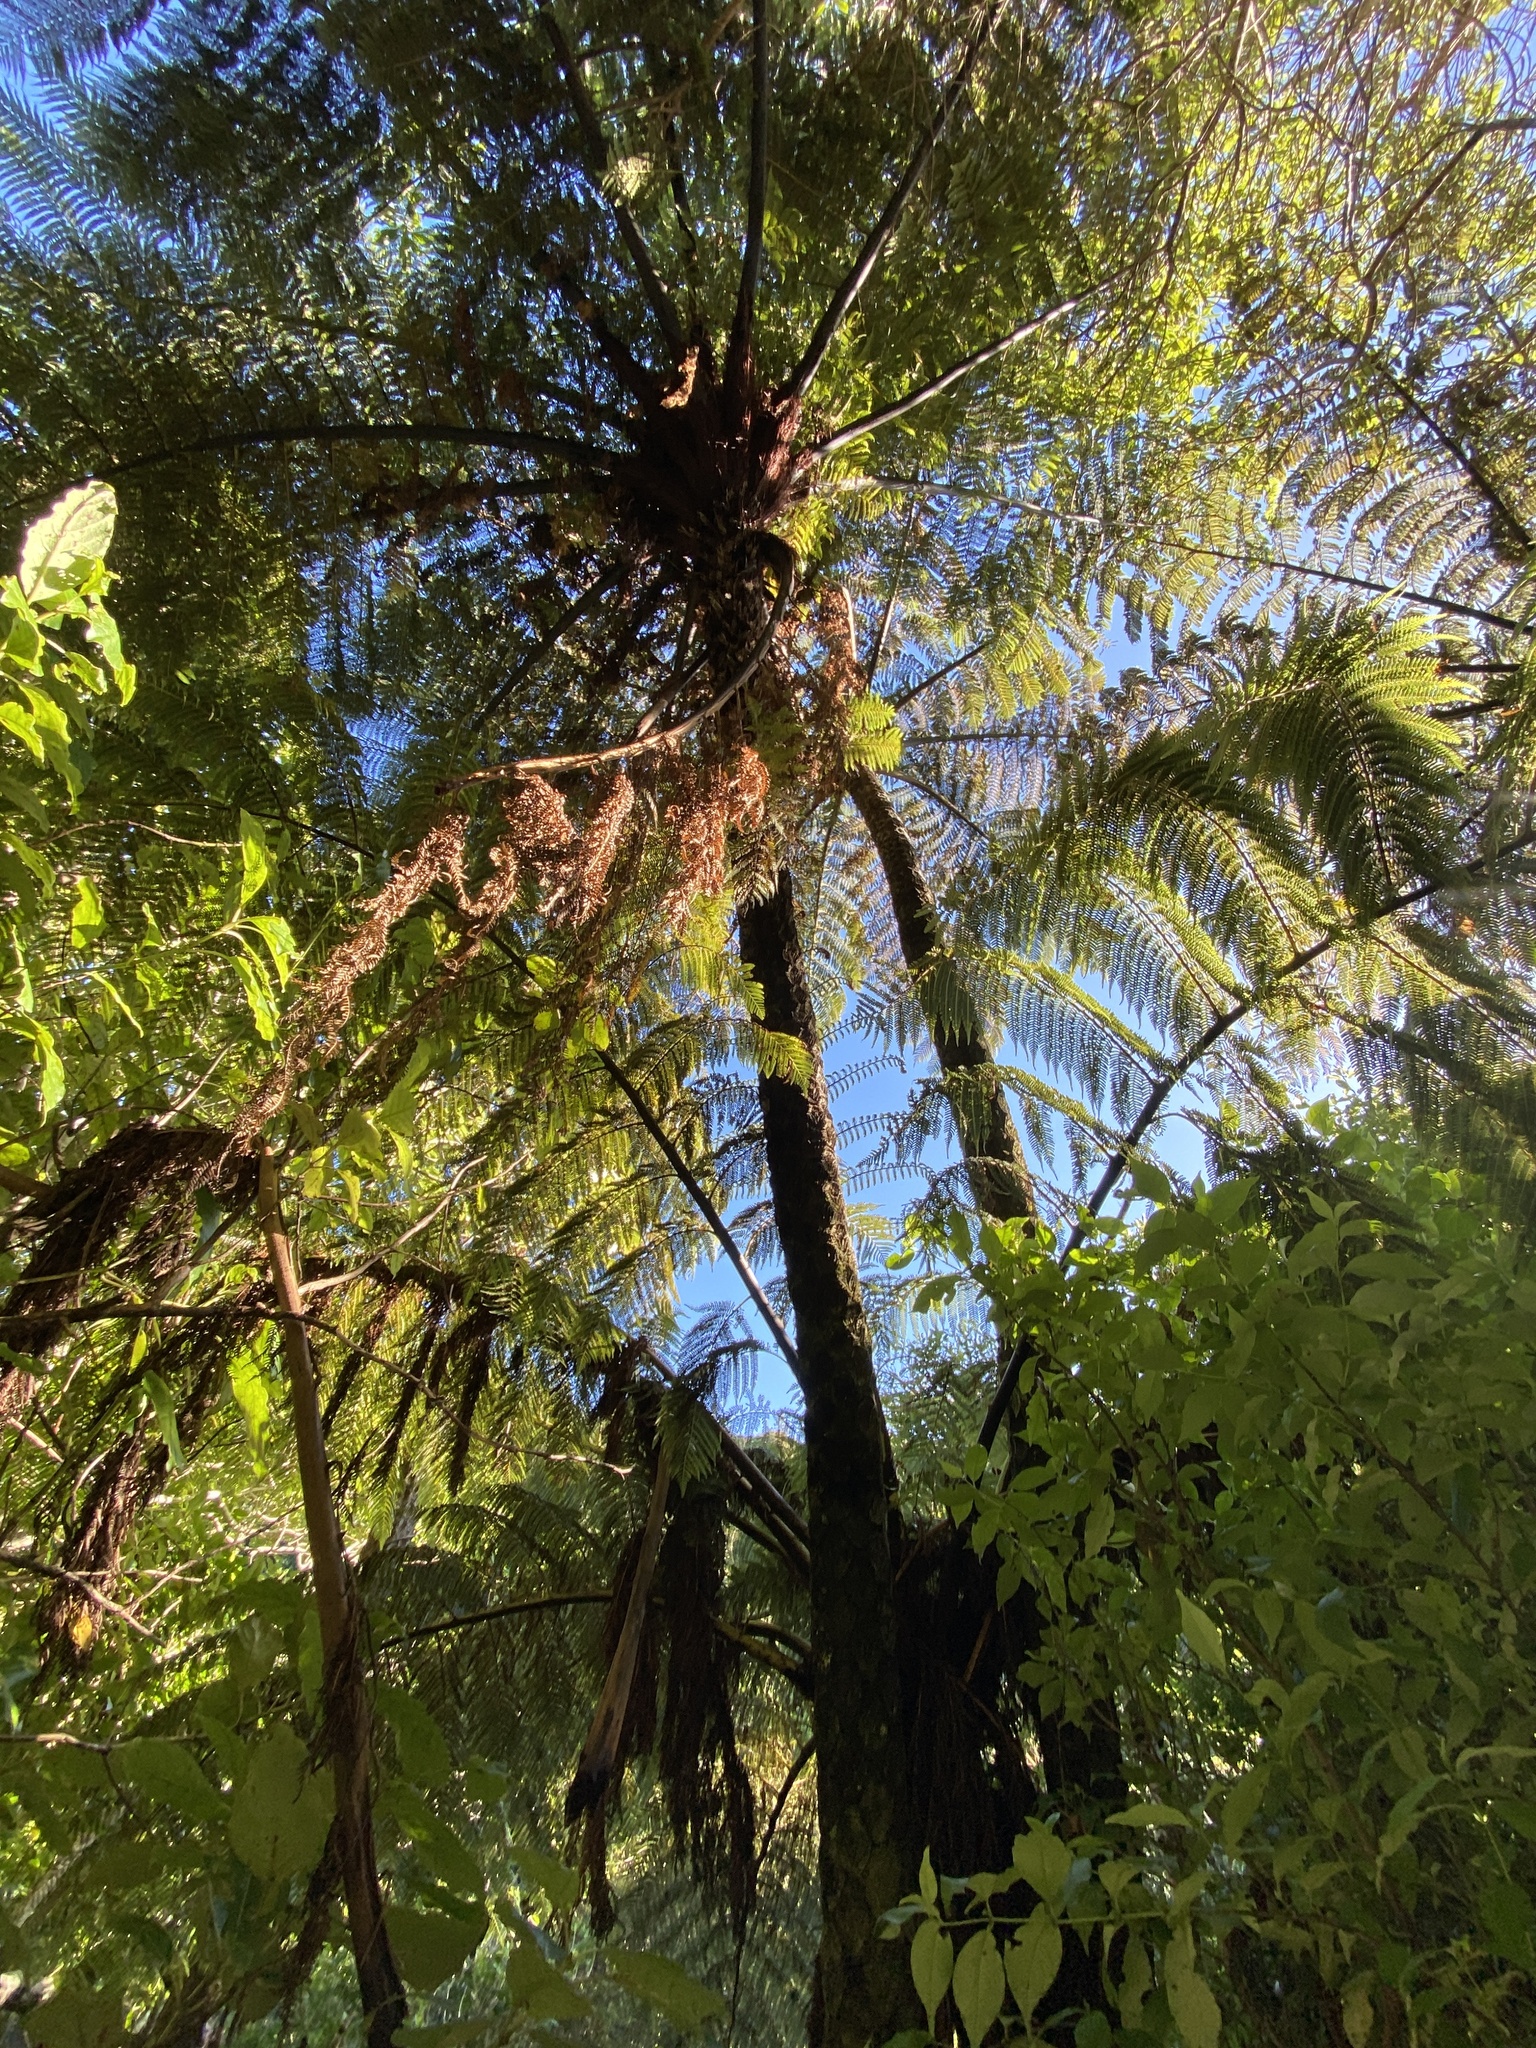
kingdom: Plantae
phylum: Tracheophyta
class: Polypodiopsida
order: Cyatheales
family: Cyatheaceae
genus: Sphaeropteris
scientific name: Sphaeropteris medullaris
